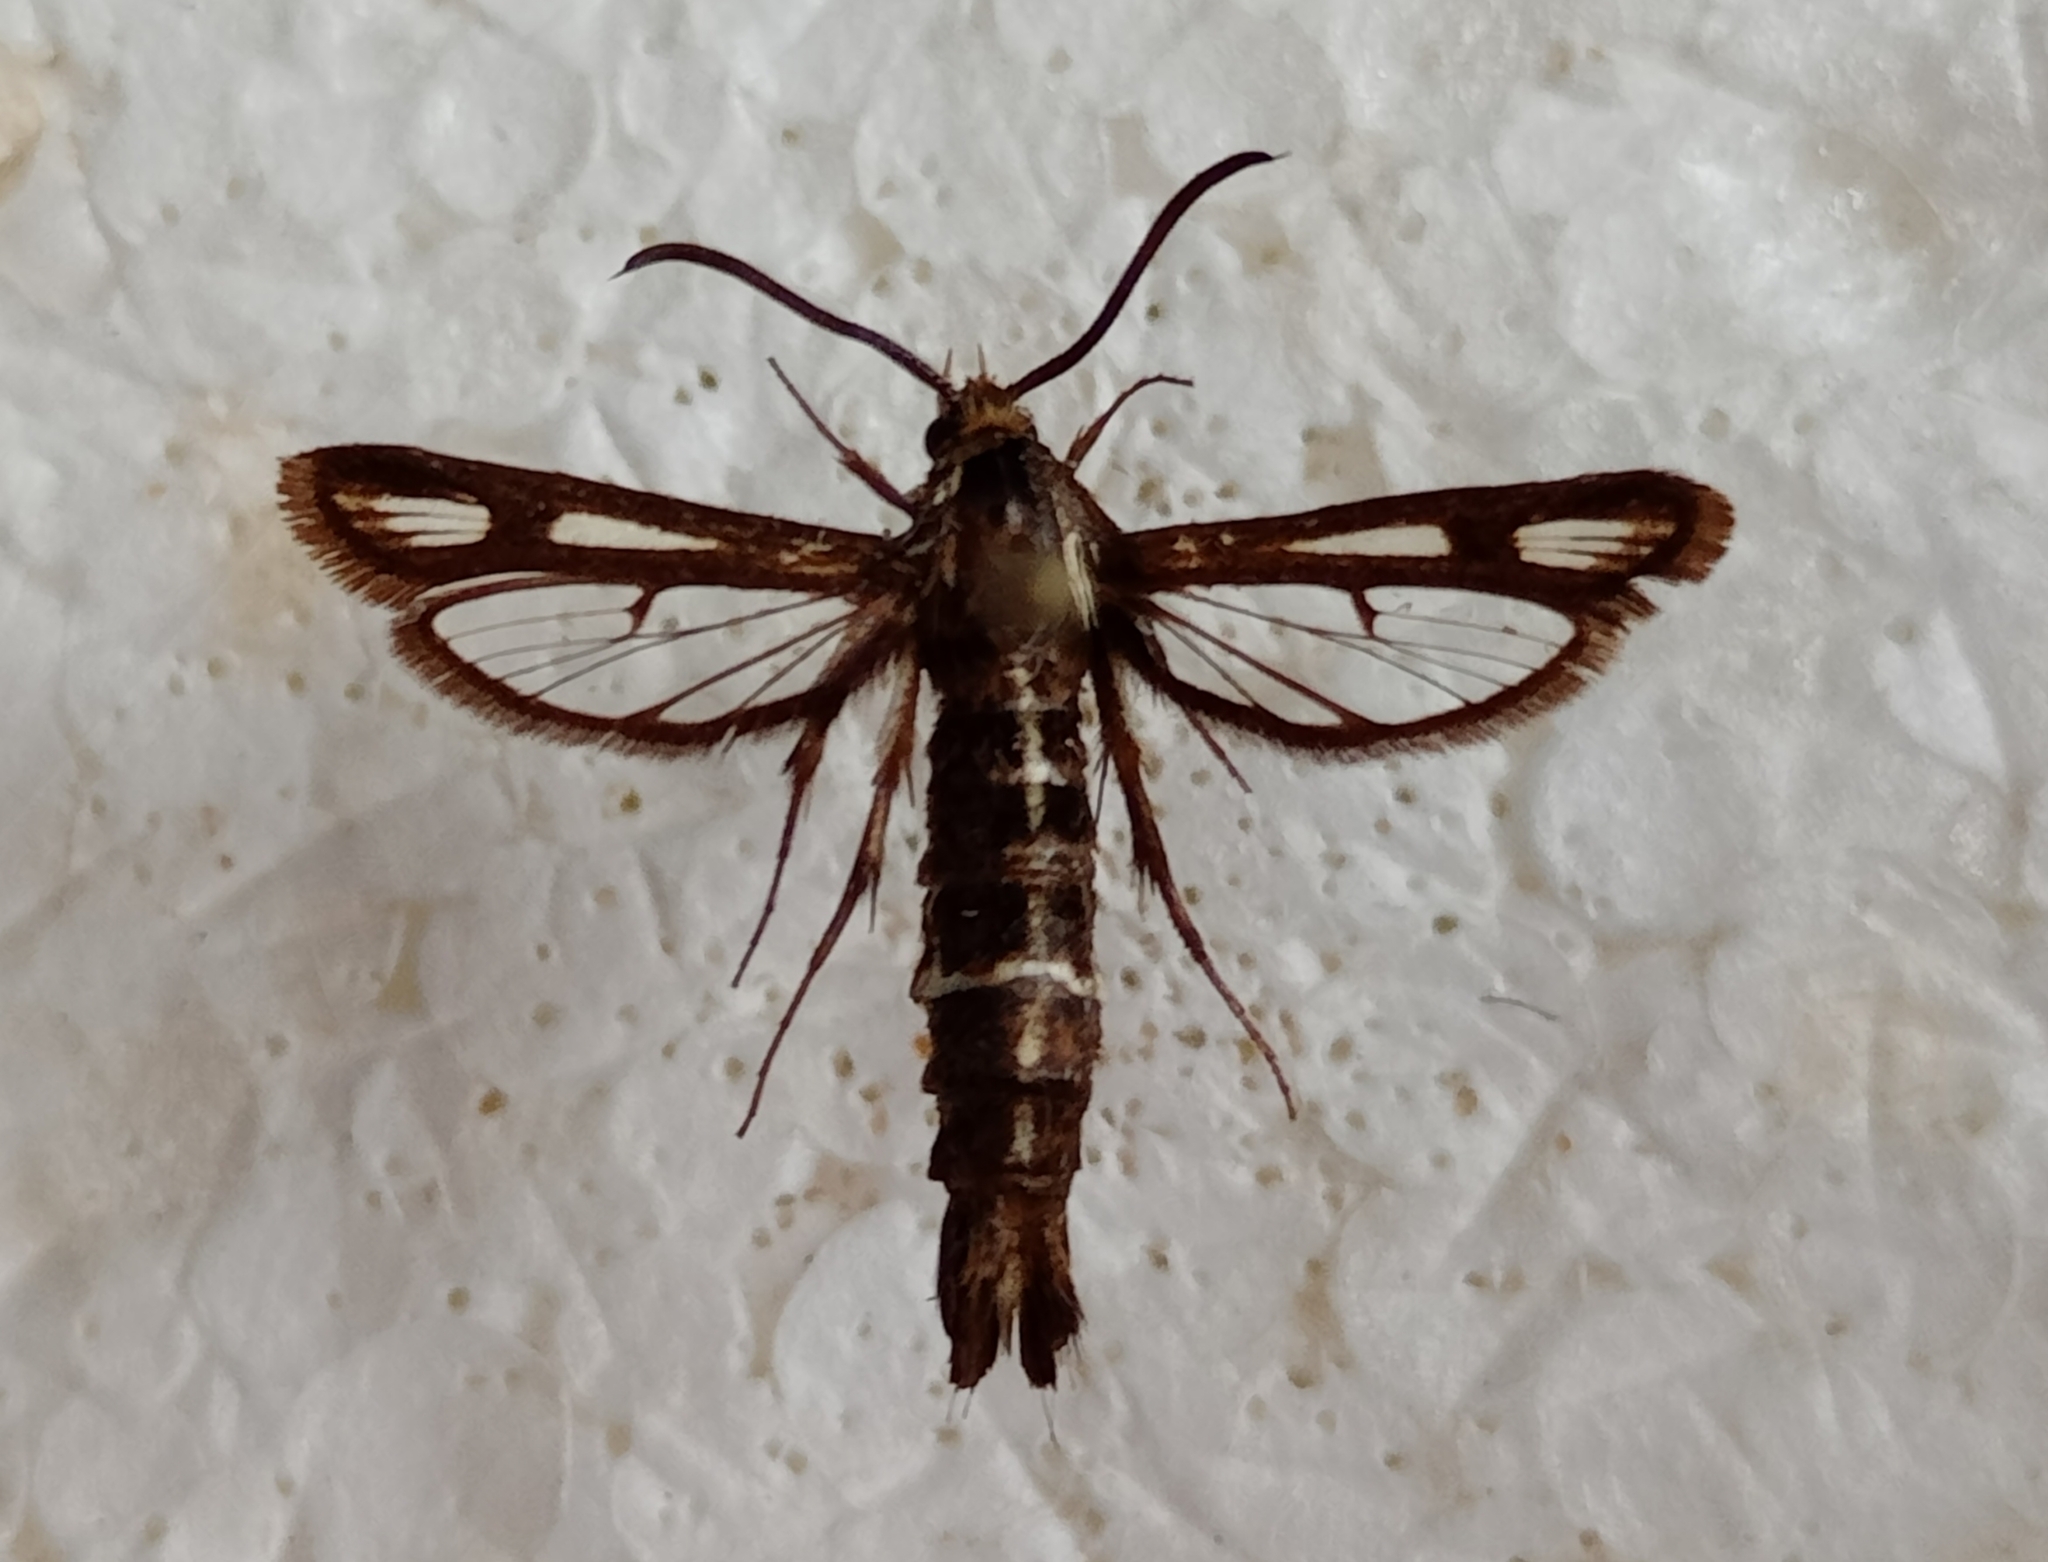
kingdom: Animalia
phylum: Arthropoda
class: Insecta
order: Lepidoptera
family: Sesiidae
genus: Chamaesphecia
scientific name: Chamaesphecia leucopsiformis
